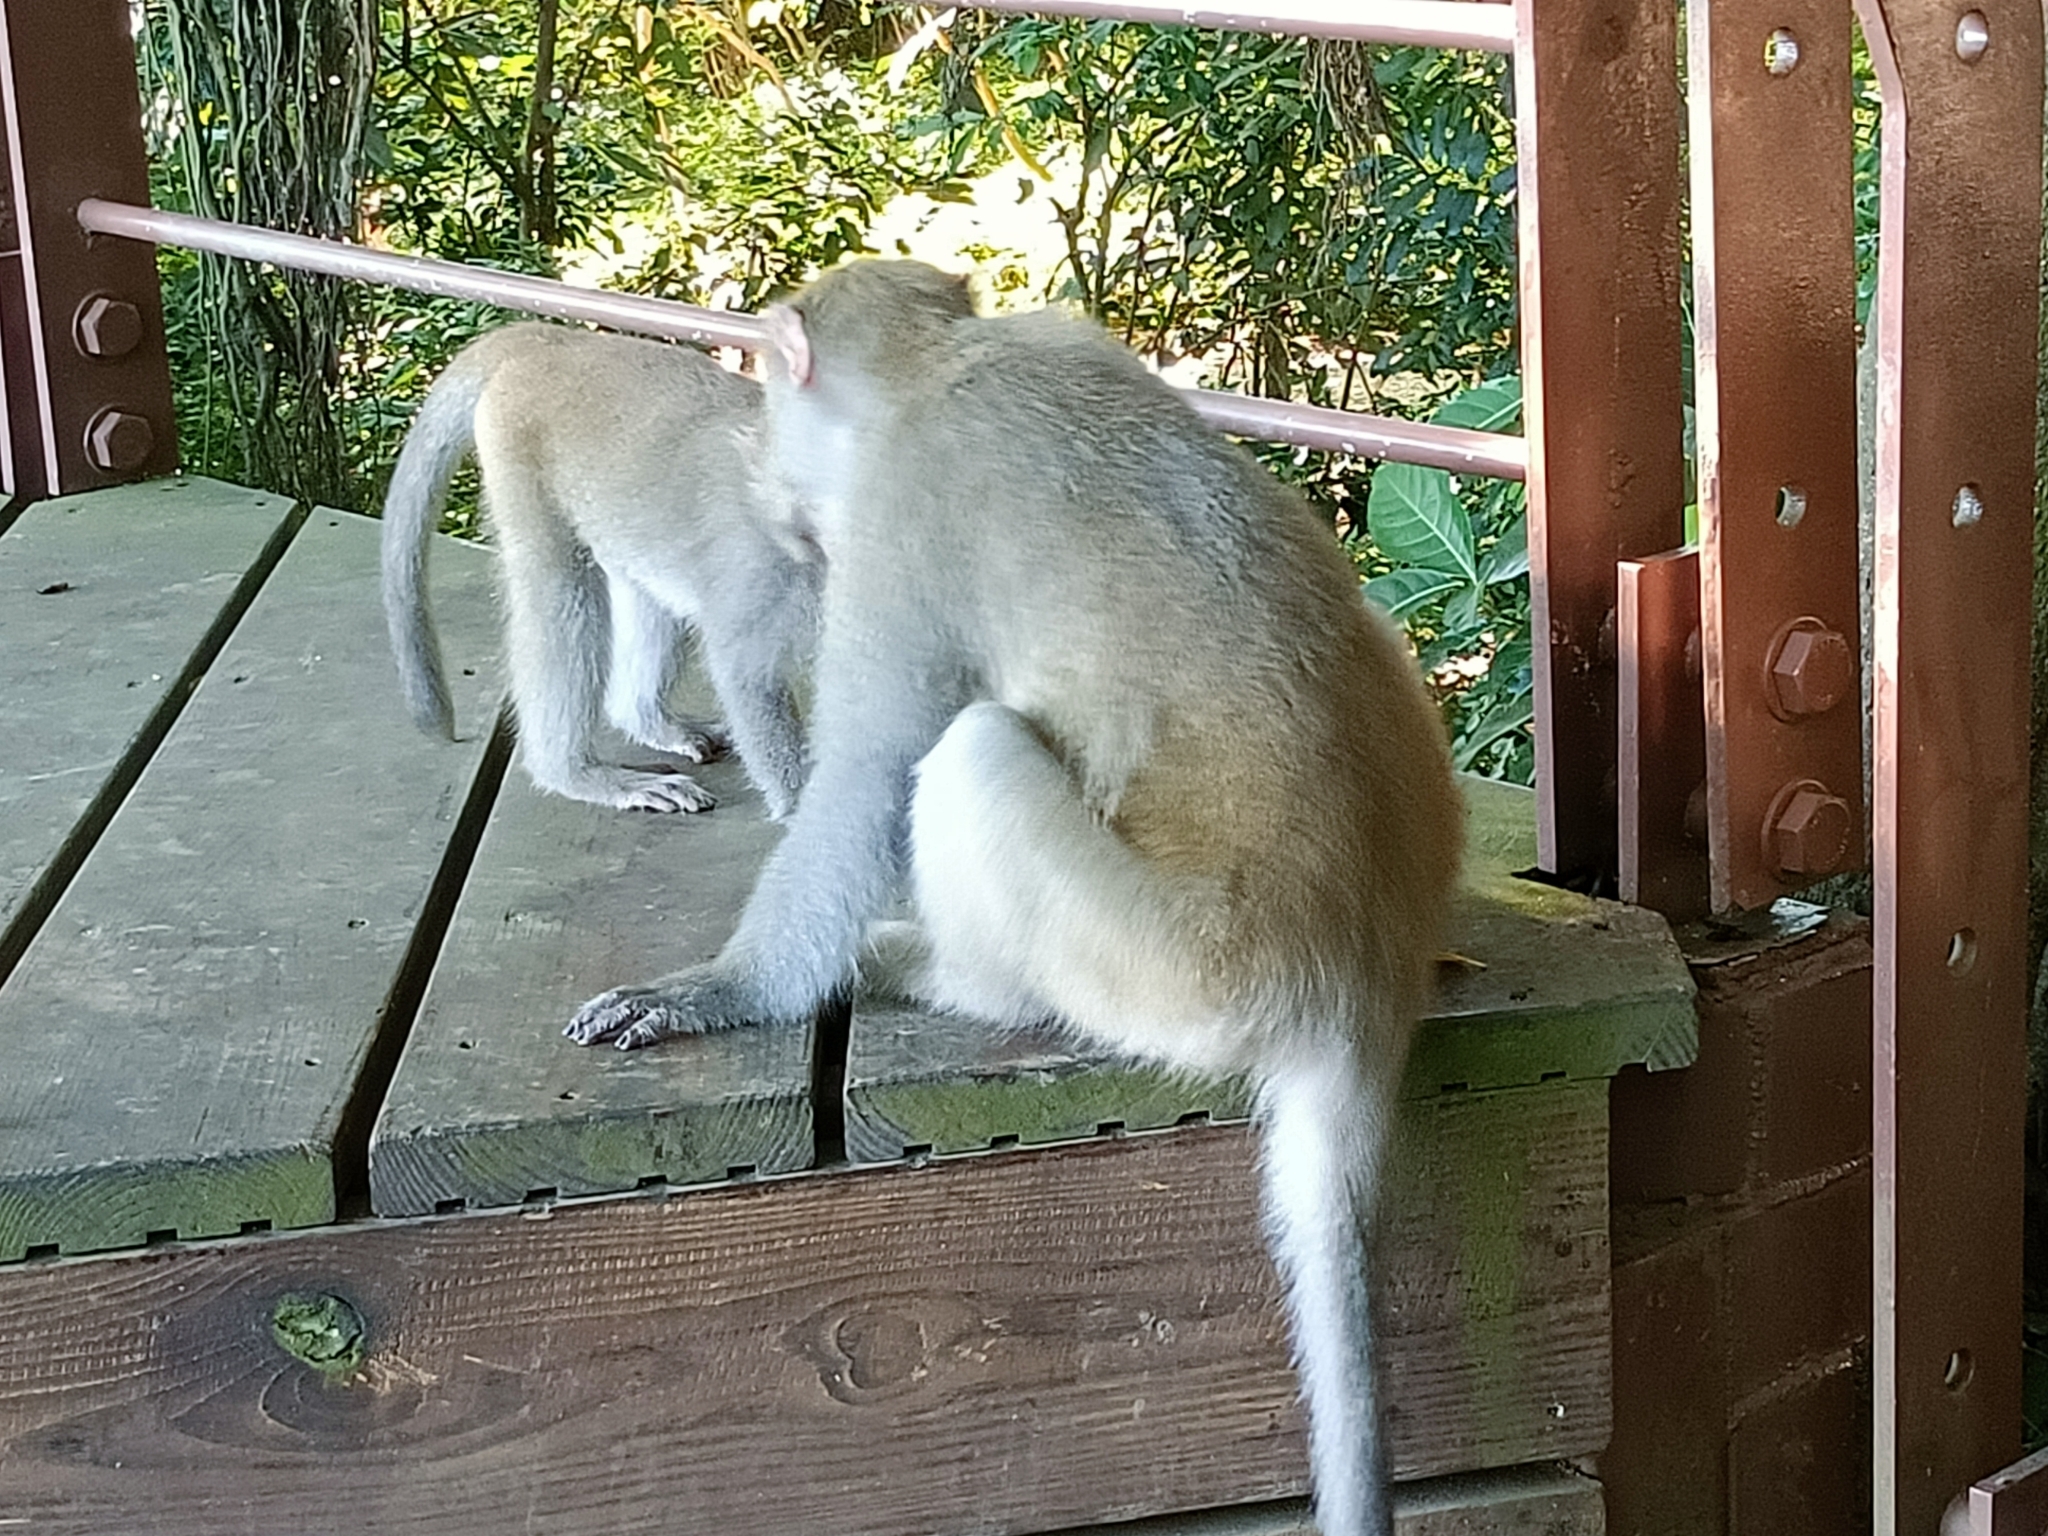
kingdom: Animalia
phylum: Chordata
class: Mammalia
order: Primates
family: Cercopithecidae
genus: Macaca
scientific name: Macaca cyclopis
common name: Formosan rock macaque
